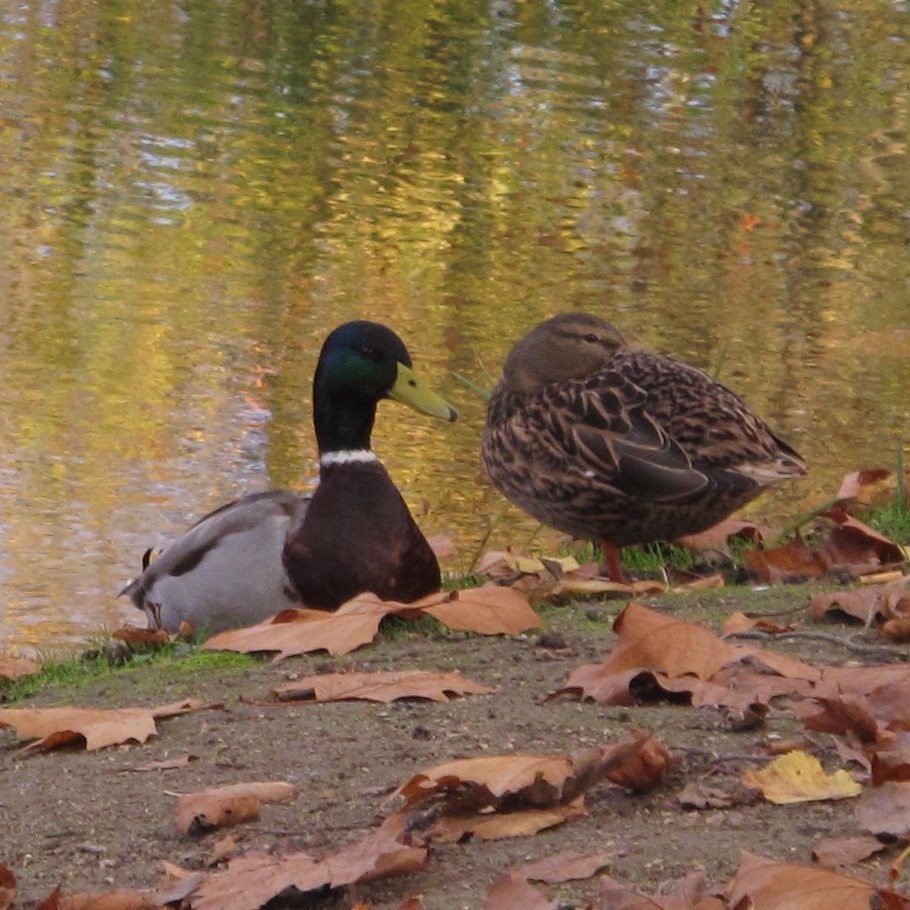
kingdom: Animalia
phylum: Chordata
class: Aves
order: Anseriformes
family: Anatidae
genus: Anas
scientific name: Anas platyrhynchos
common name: Mallard
